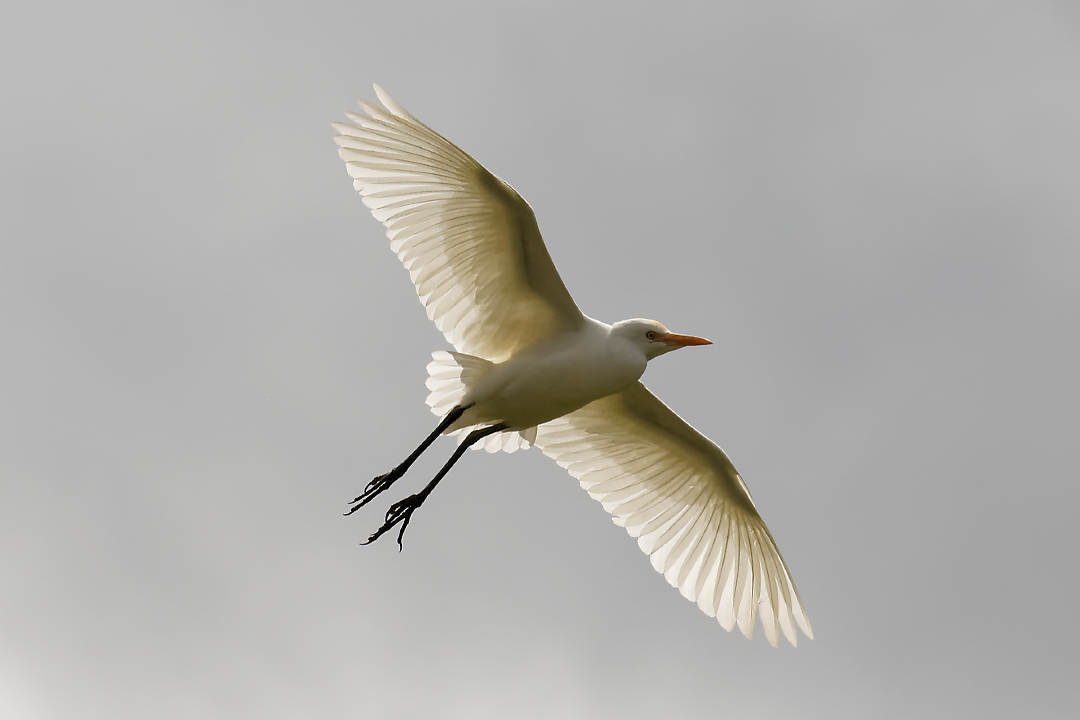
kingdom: Animalia
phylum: Chordata
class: Aves
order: Pelecaniformes
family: Ardeidae
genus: Bubulcus
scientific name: Bubulcus ibis
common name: Cattle egret
